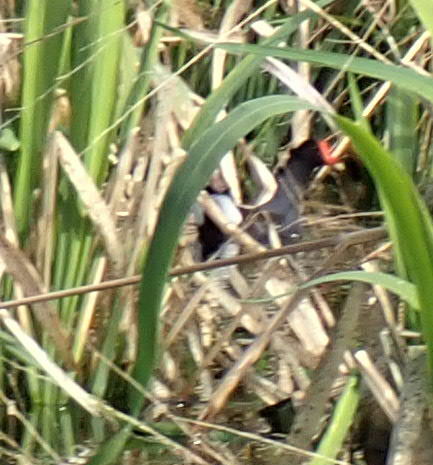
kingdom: Animalia
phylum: Chordata
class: Aves
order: Gruiformes
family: Rallidae
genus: Gallinula
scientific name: Gallinula chloropus
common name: Common moorhen
